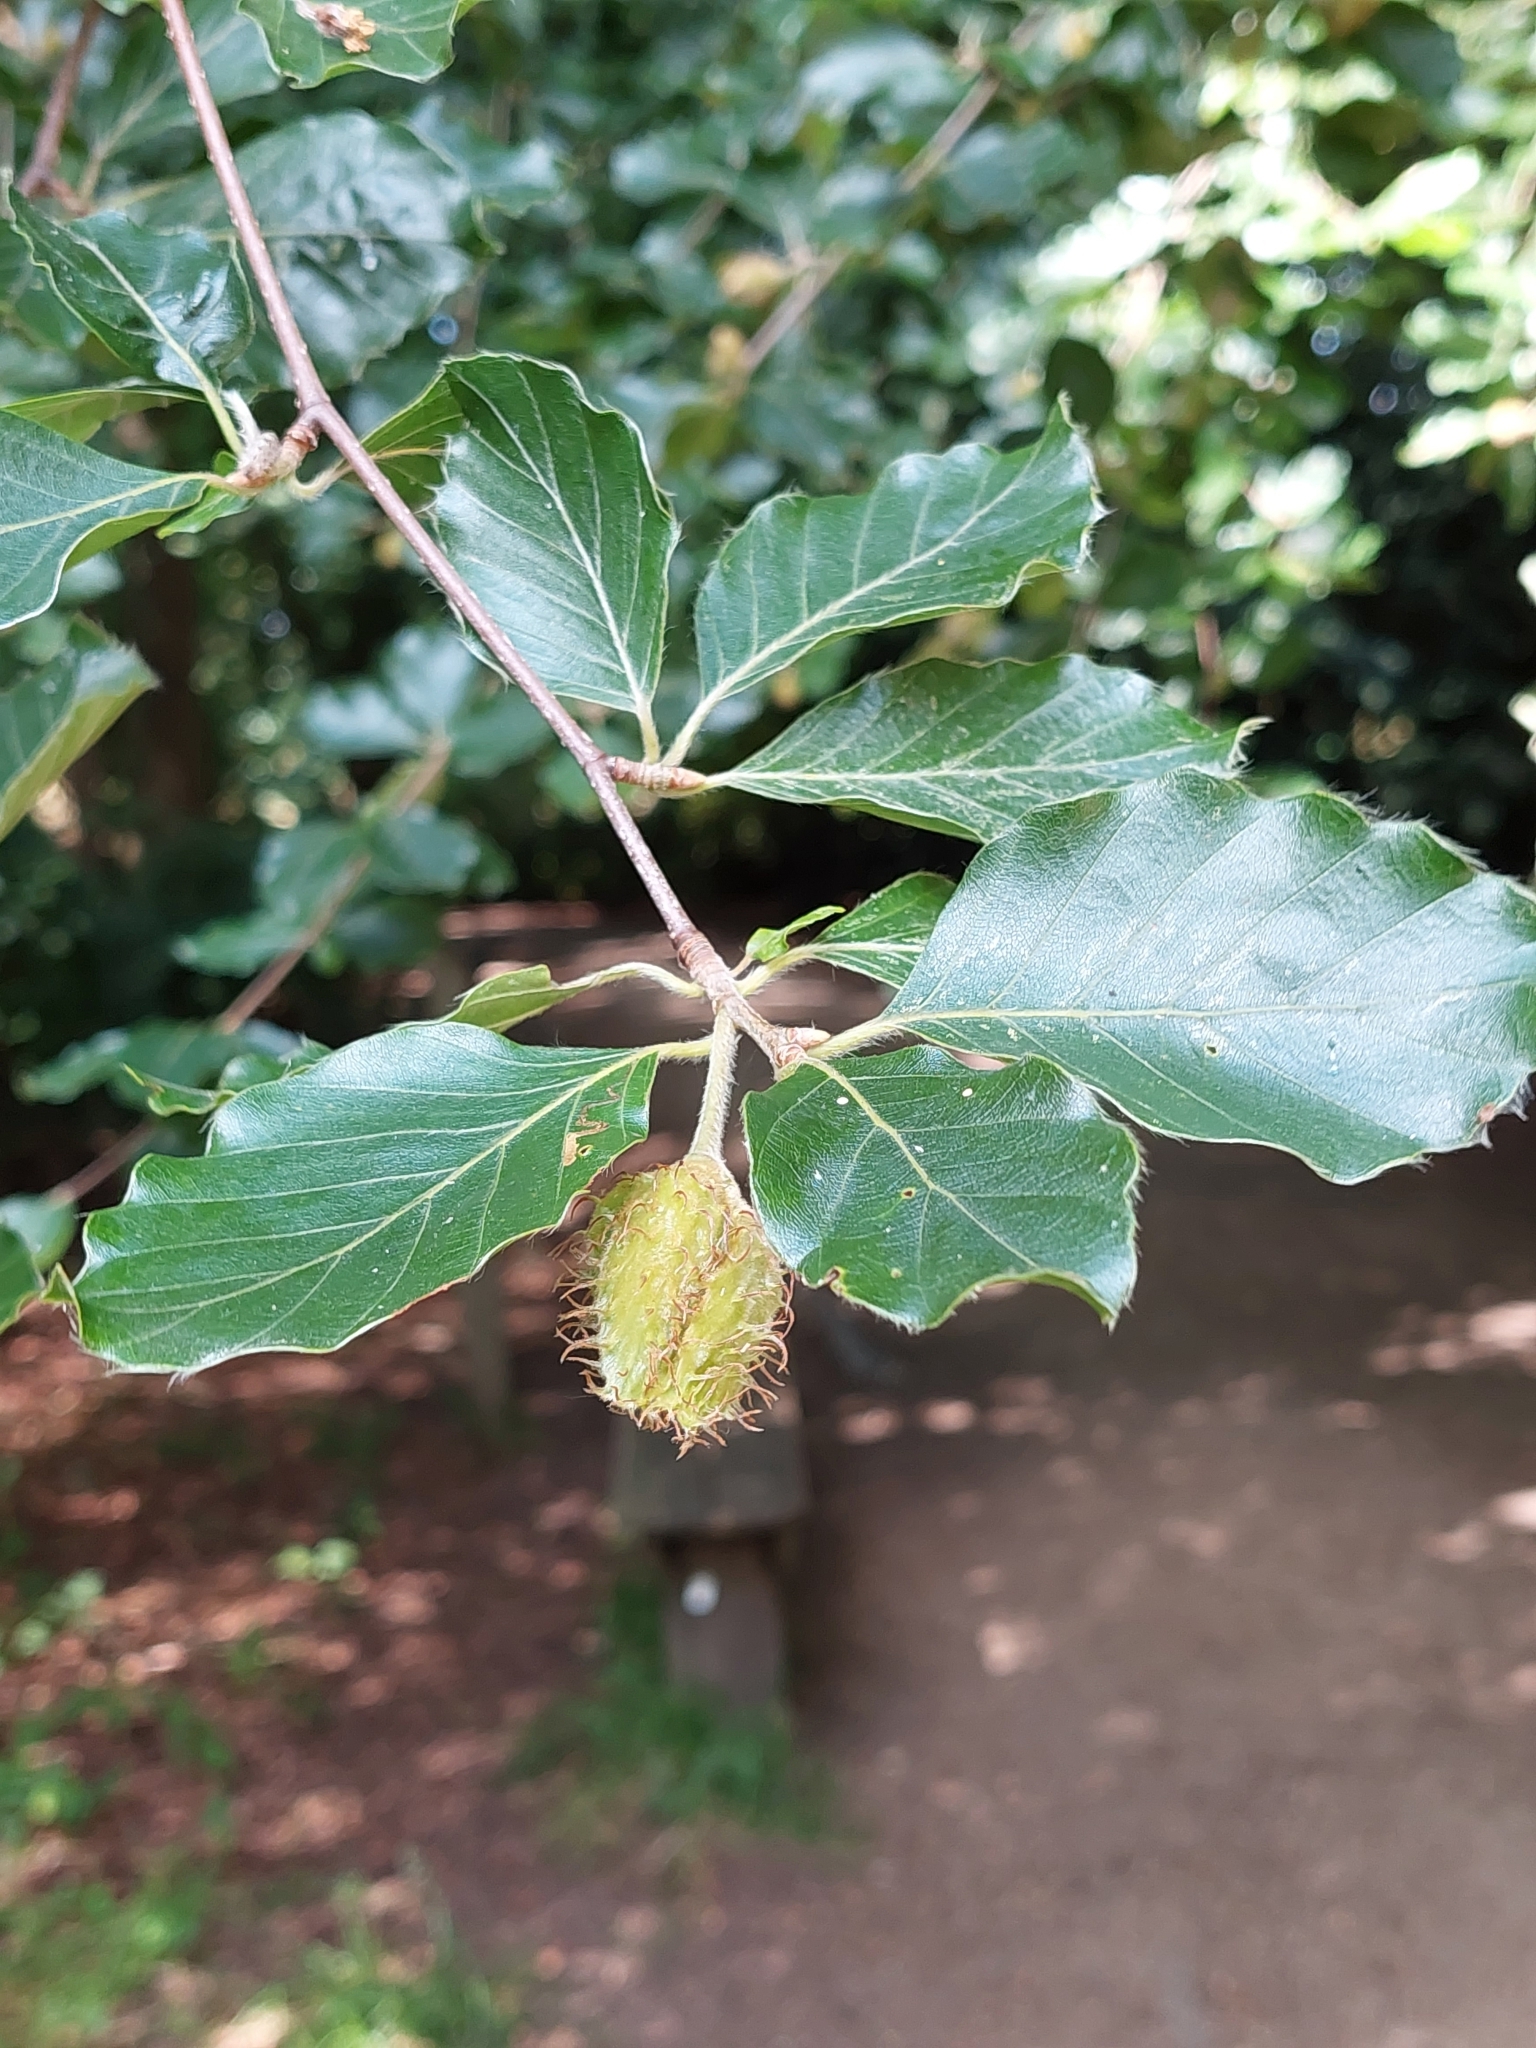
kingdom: Plantae
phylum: Tracheophyta
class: Magnoliopsida
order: Fagales
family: Fagaceae
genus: Fagus
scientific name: Fagus sylvatica
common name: Beech
